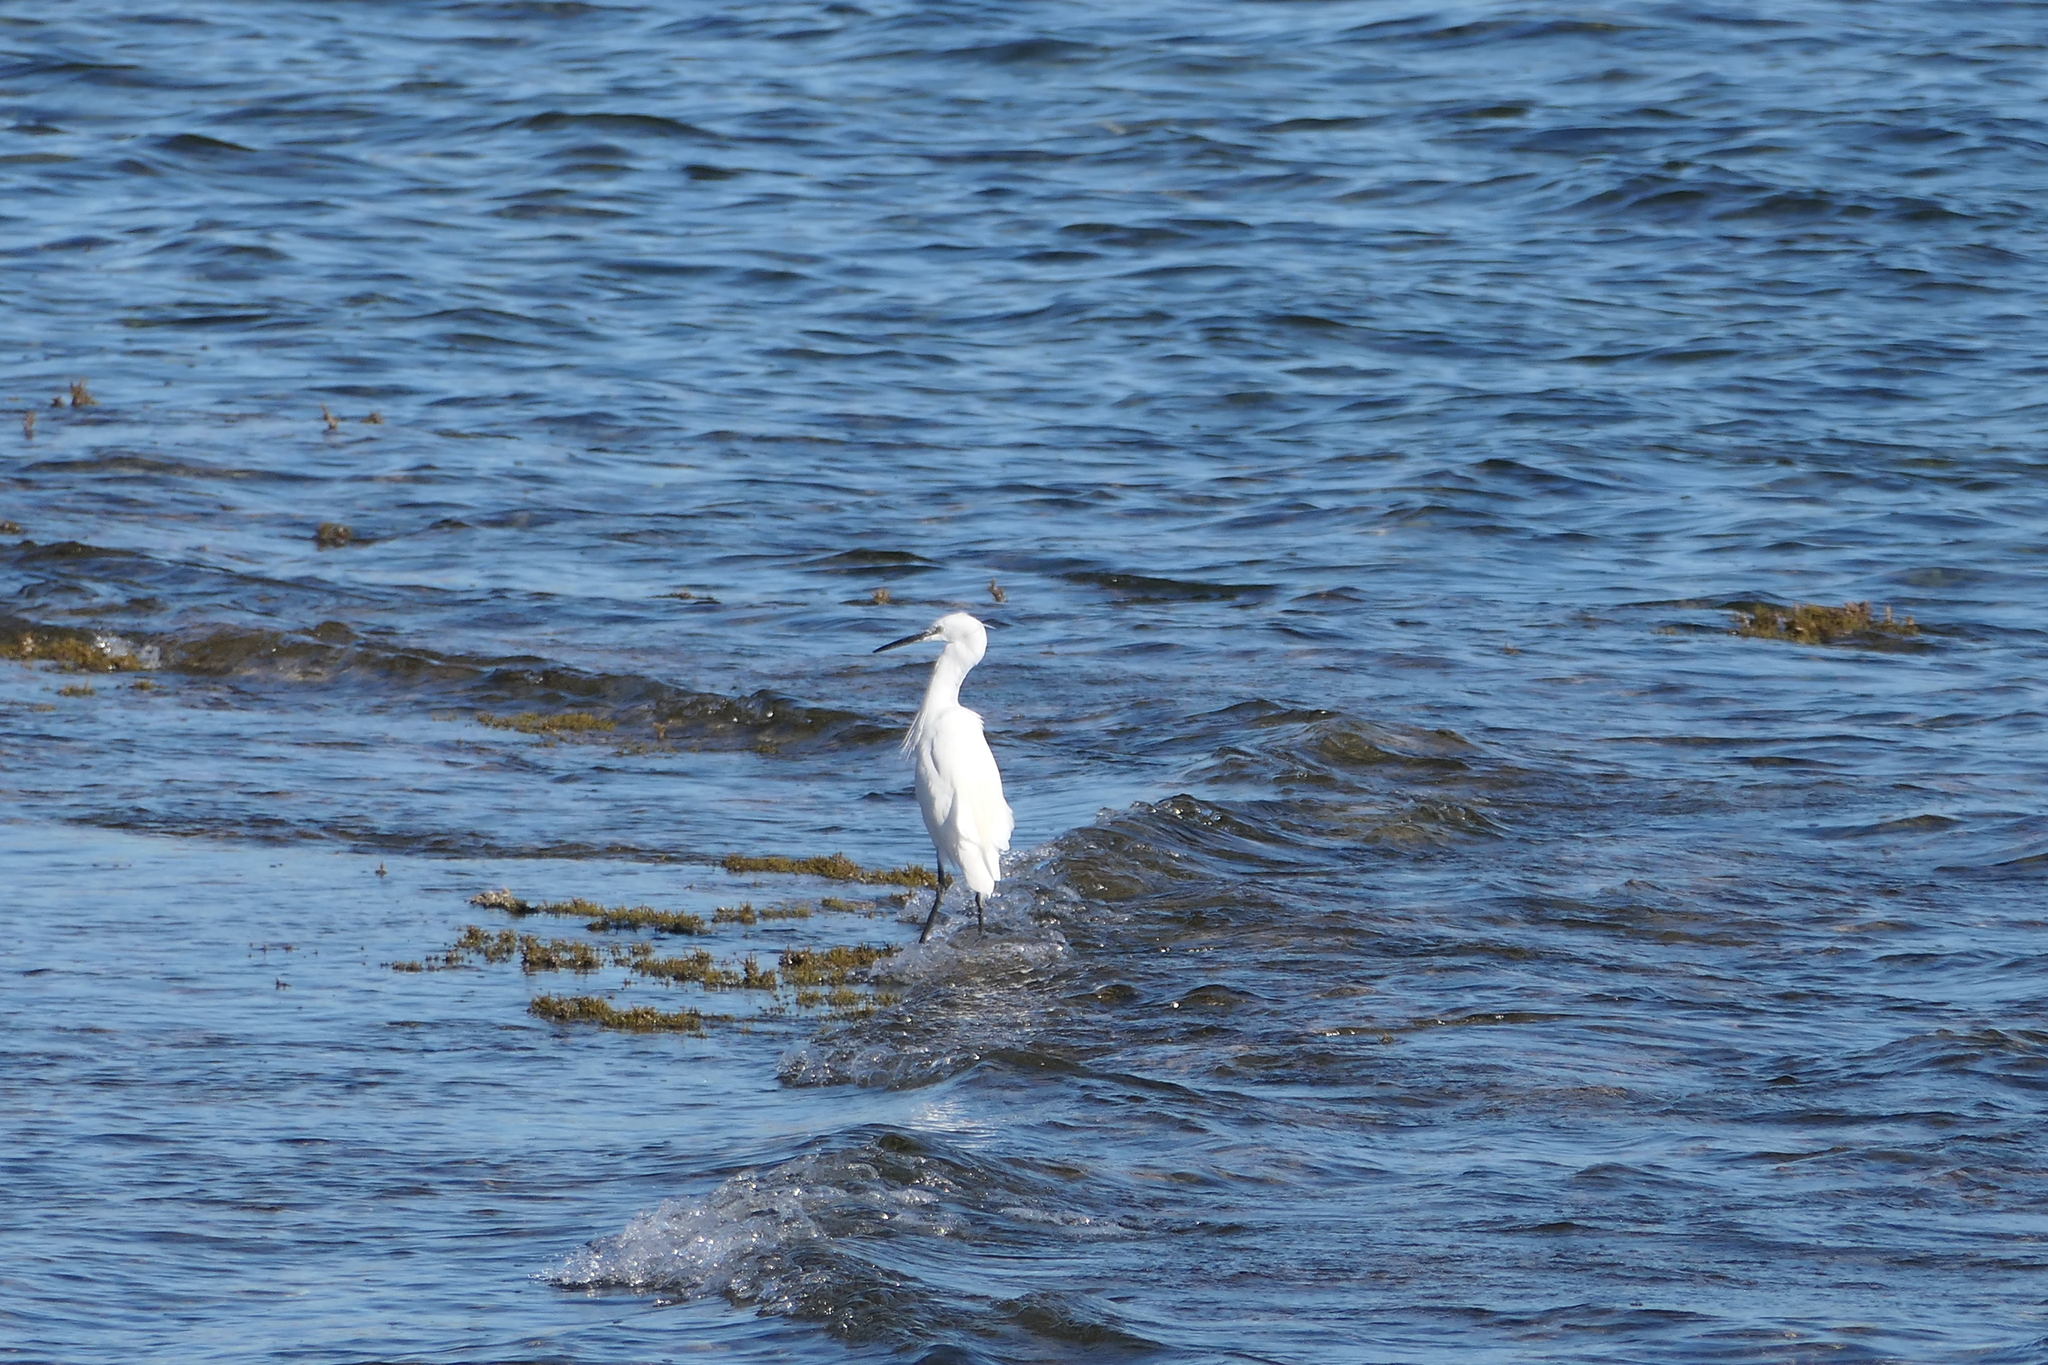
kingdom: Animalia
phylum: Chordata
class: Aves
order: Pelecaniformes
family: Ardeidae
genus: Egretta
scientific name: Egretta garzetta
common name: Little egret
